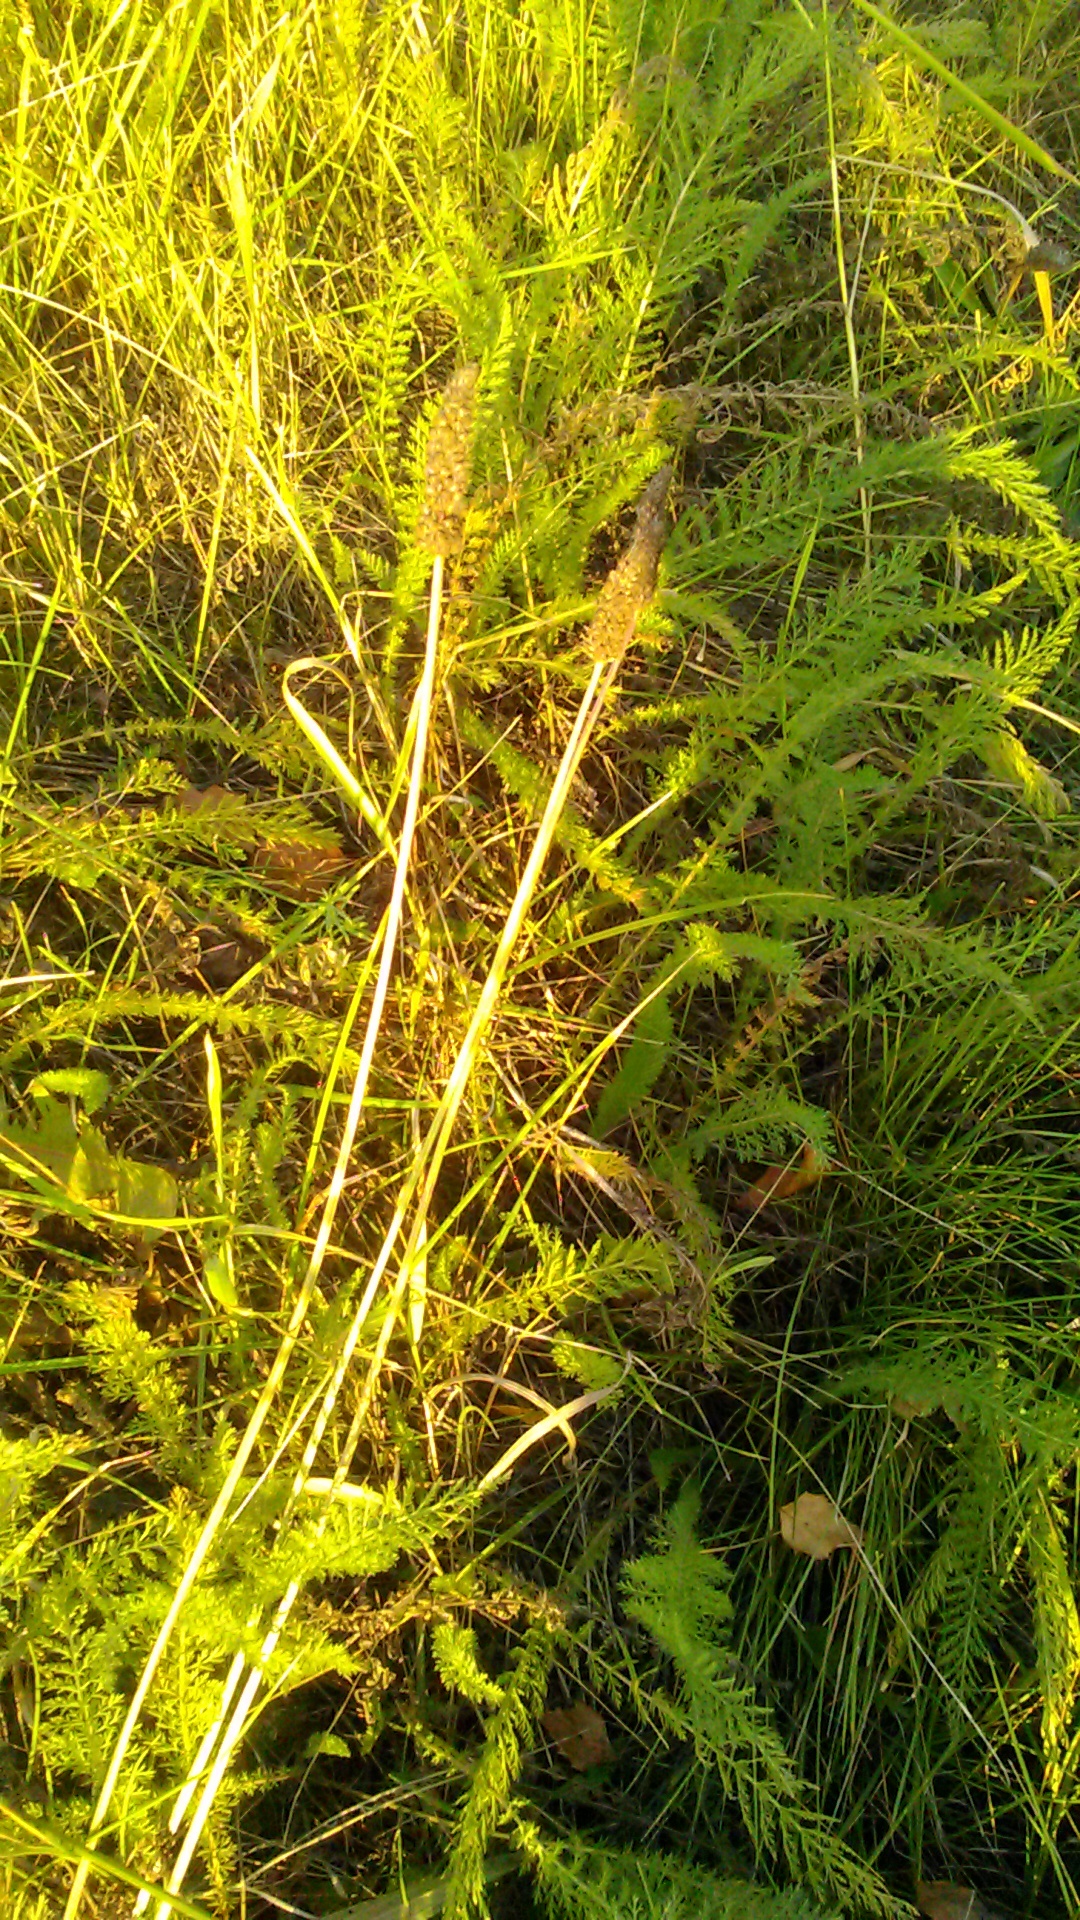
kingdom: Plantae
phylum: Tracheophyta
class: Magnoliopsida
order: Lamiales
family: Plantaginaceae
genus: Plantago
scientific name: Plantago lanceolata
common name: Ribwort plantain
